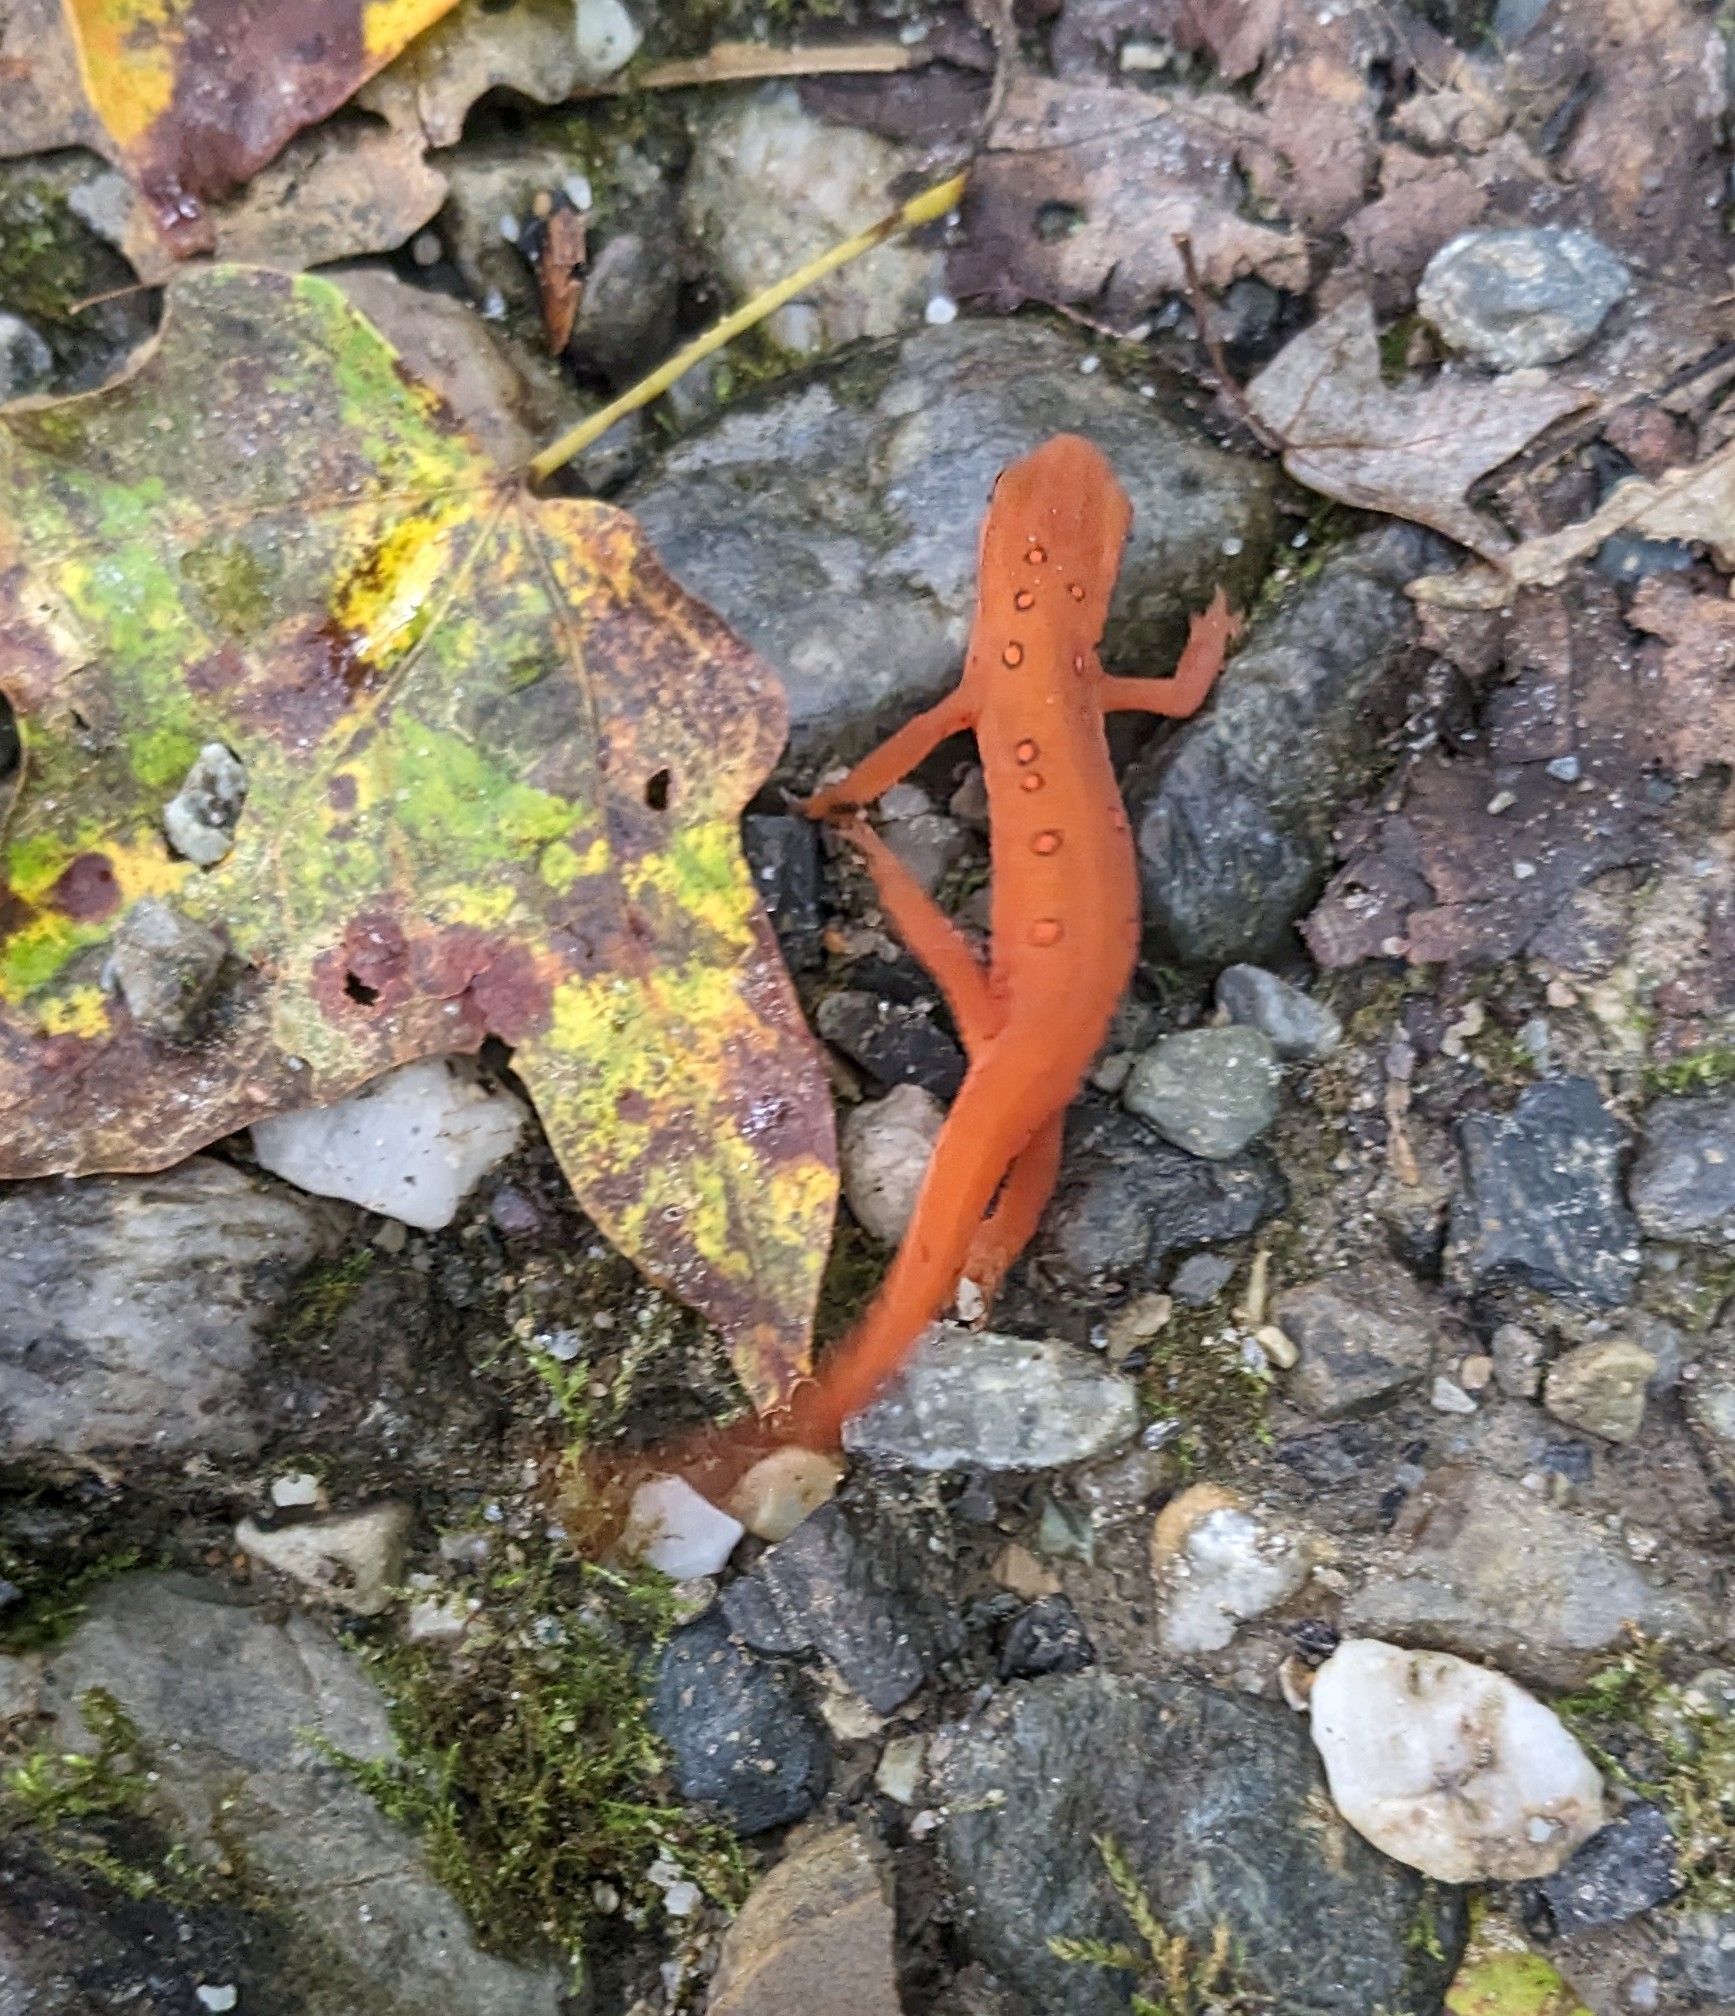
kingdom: Animalia
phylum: Chordata
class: Amphibia
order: Caudata
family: Salamandridae
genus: Notophthalmus
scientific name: Notophthalmus viridescens
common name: Eastern newt
